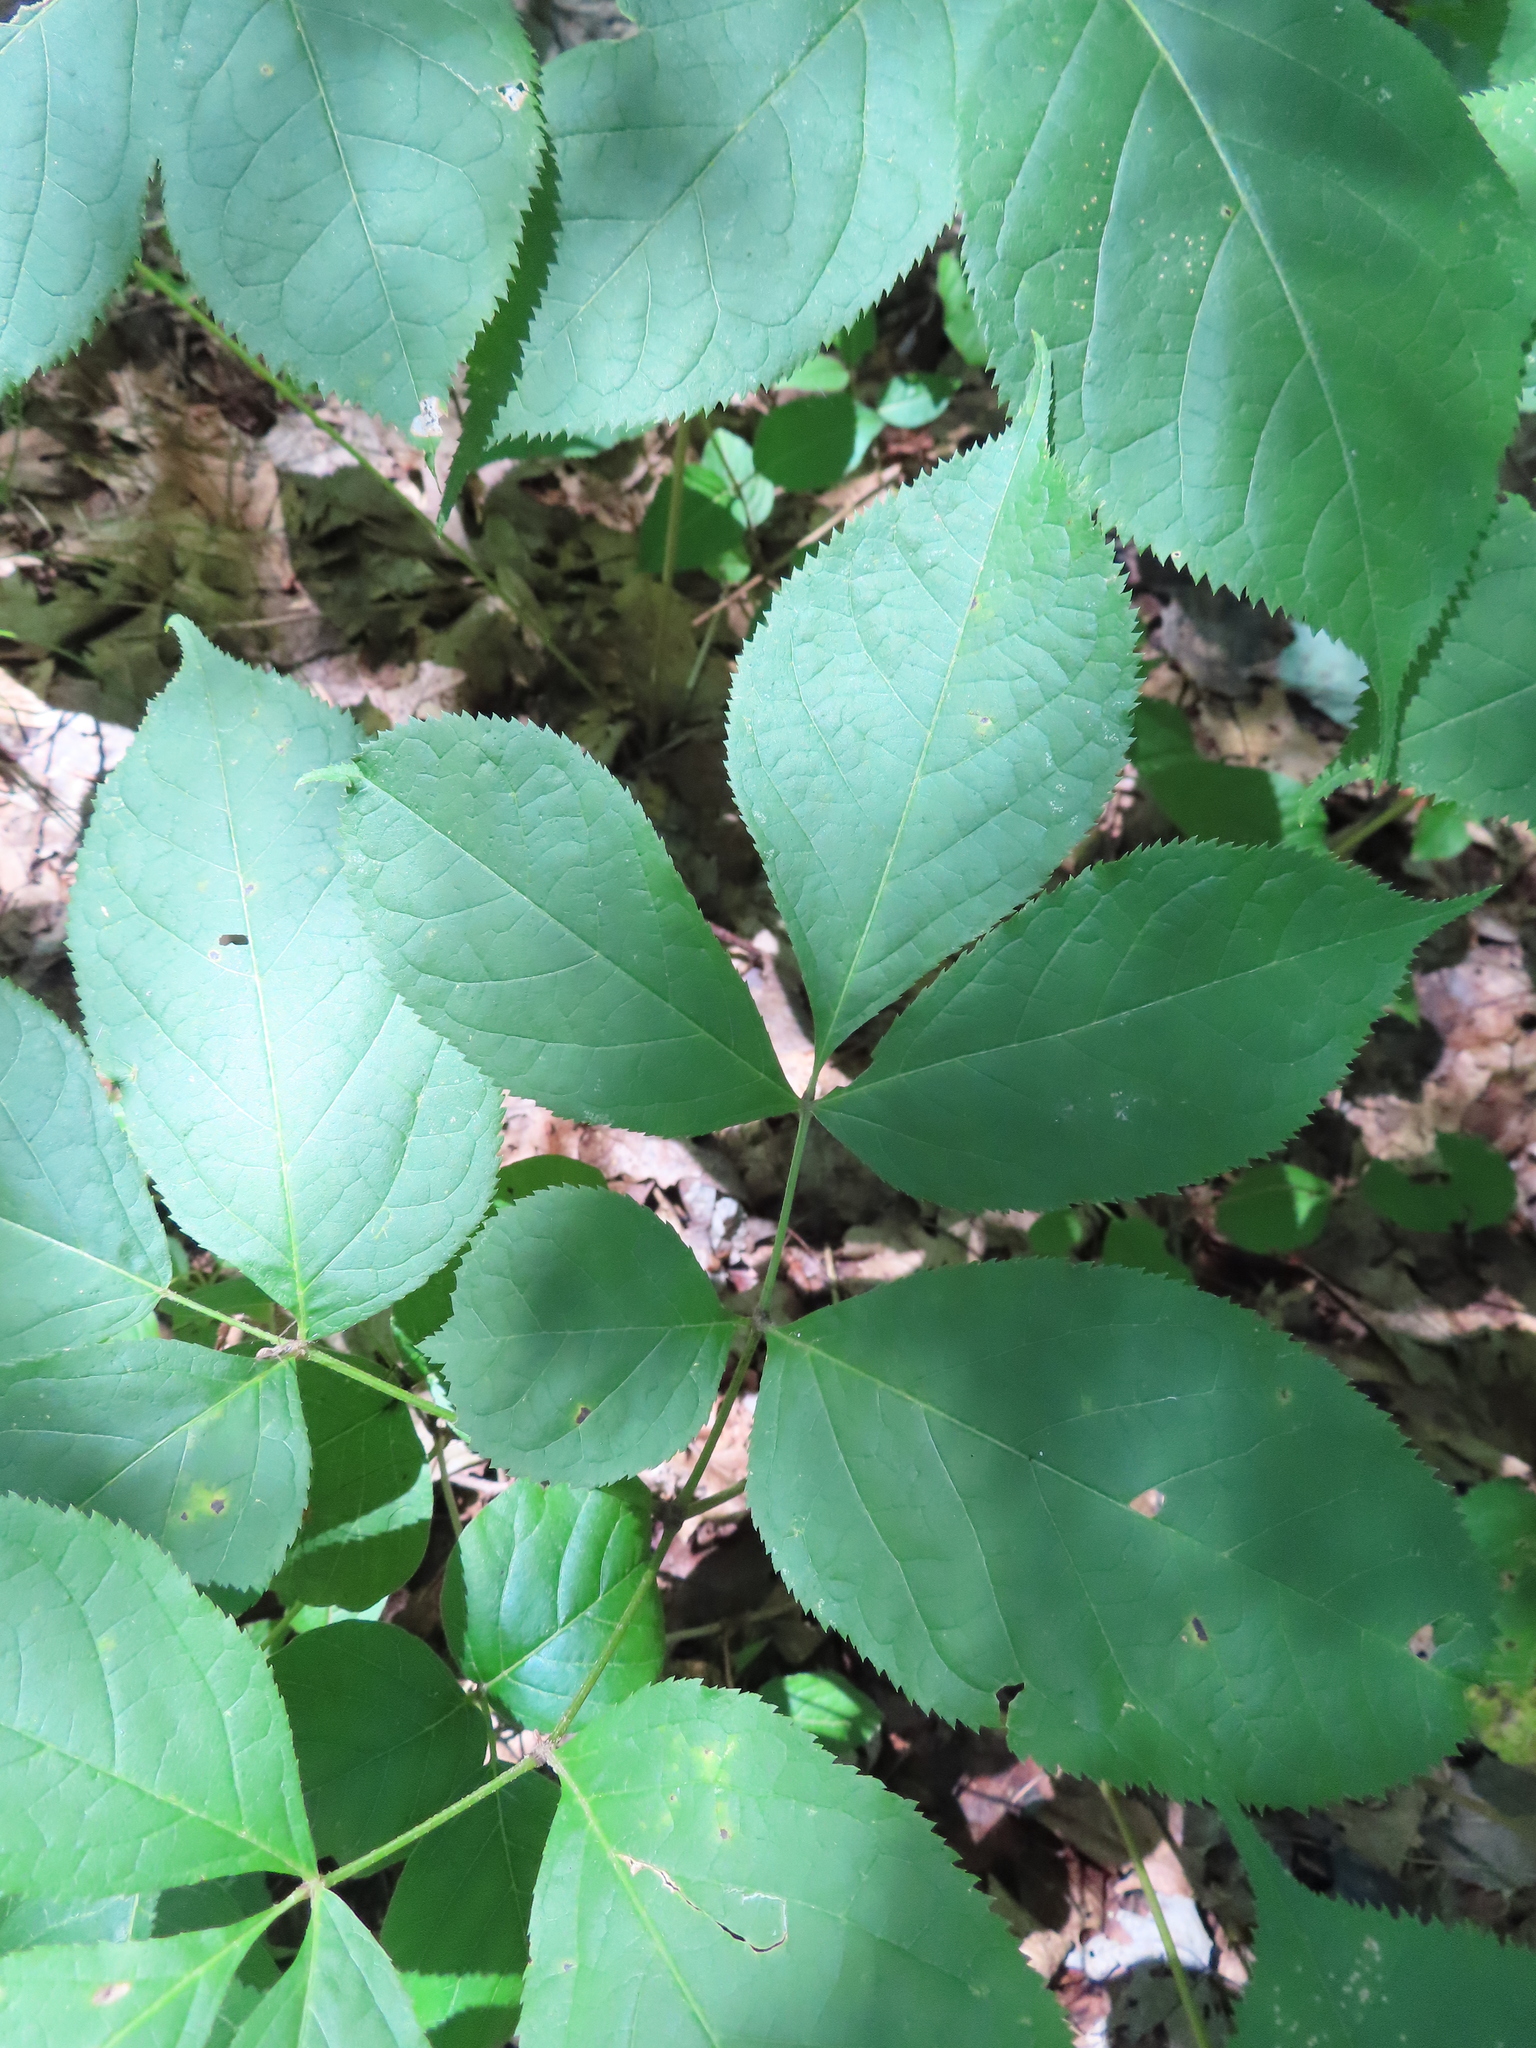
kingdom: Plantae
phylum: Tracheophyta
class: Magnoliopsida
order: Apiales
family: Araliaceae
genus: Aralia
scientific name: Aralia nudicaulis
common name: Wild sarsaparilla
